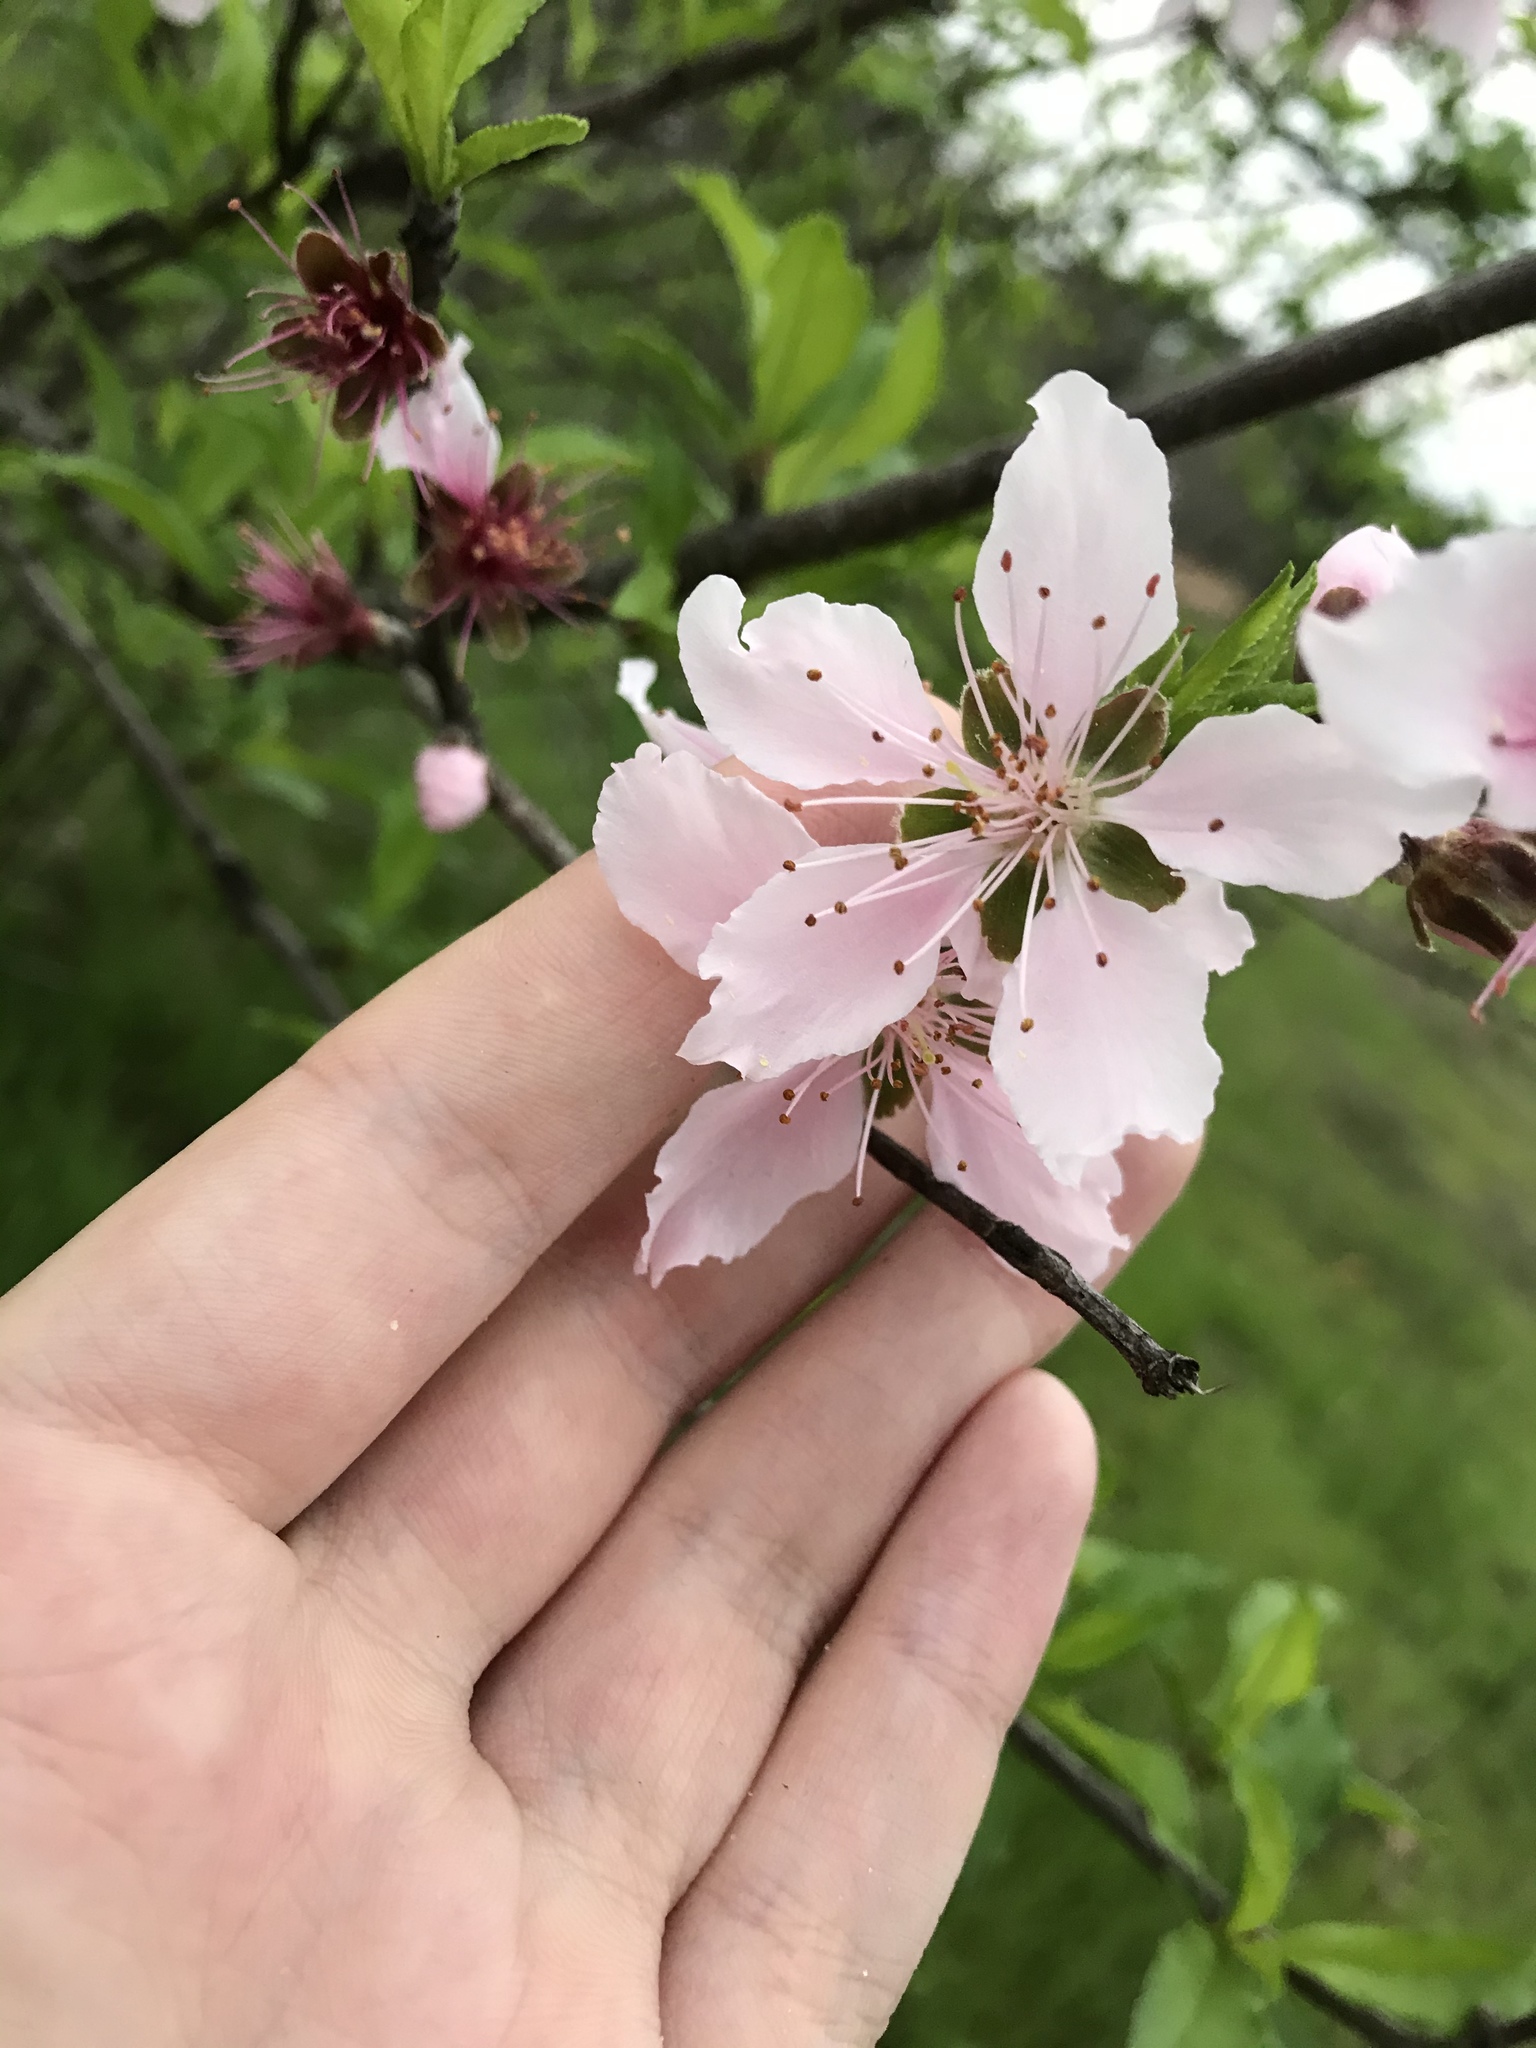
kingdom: Plantae
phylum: Tracheophyta
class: Magnoliopsida
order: Rosales
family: Rosaceae
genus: Prunus
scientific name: Prunus persica
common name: Peach
